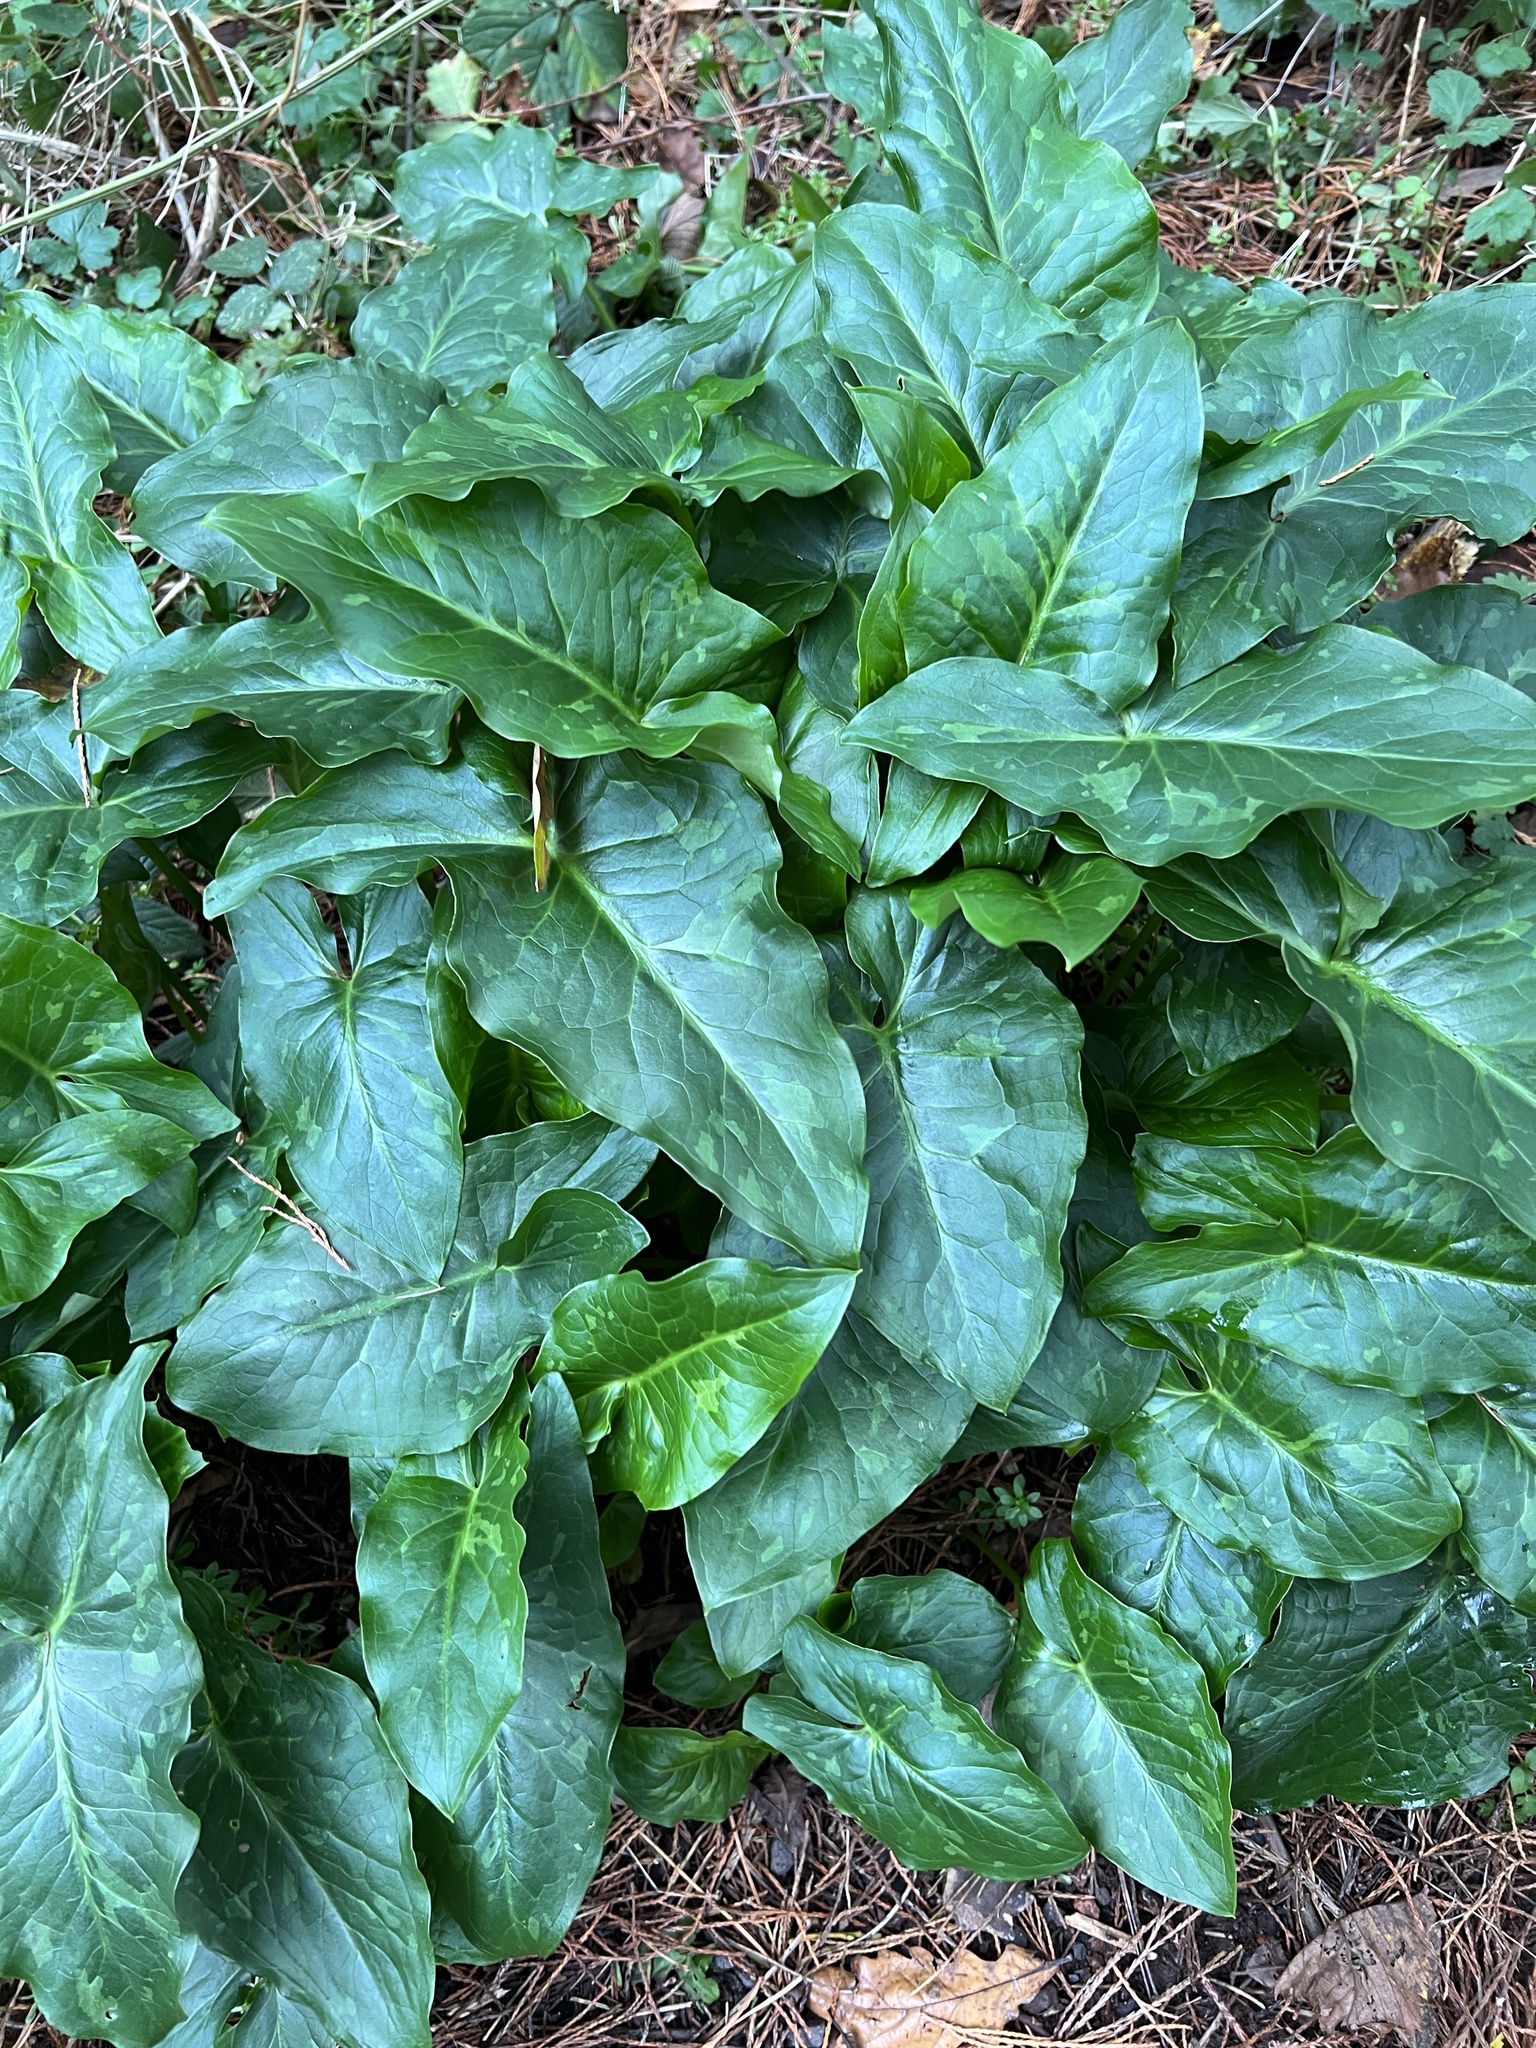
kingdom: Plantae
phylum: Tracheophyta
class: Liliopsida
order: Alismatales
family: Araceae
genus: Arum
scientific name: Arum italicum
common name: Italian lords-and-ladies
